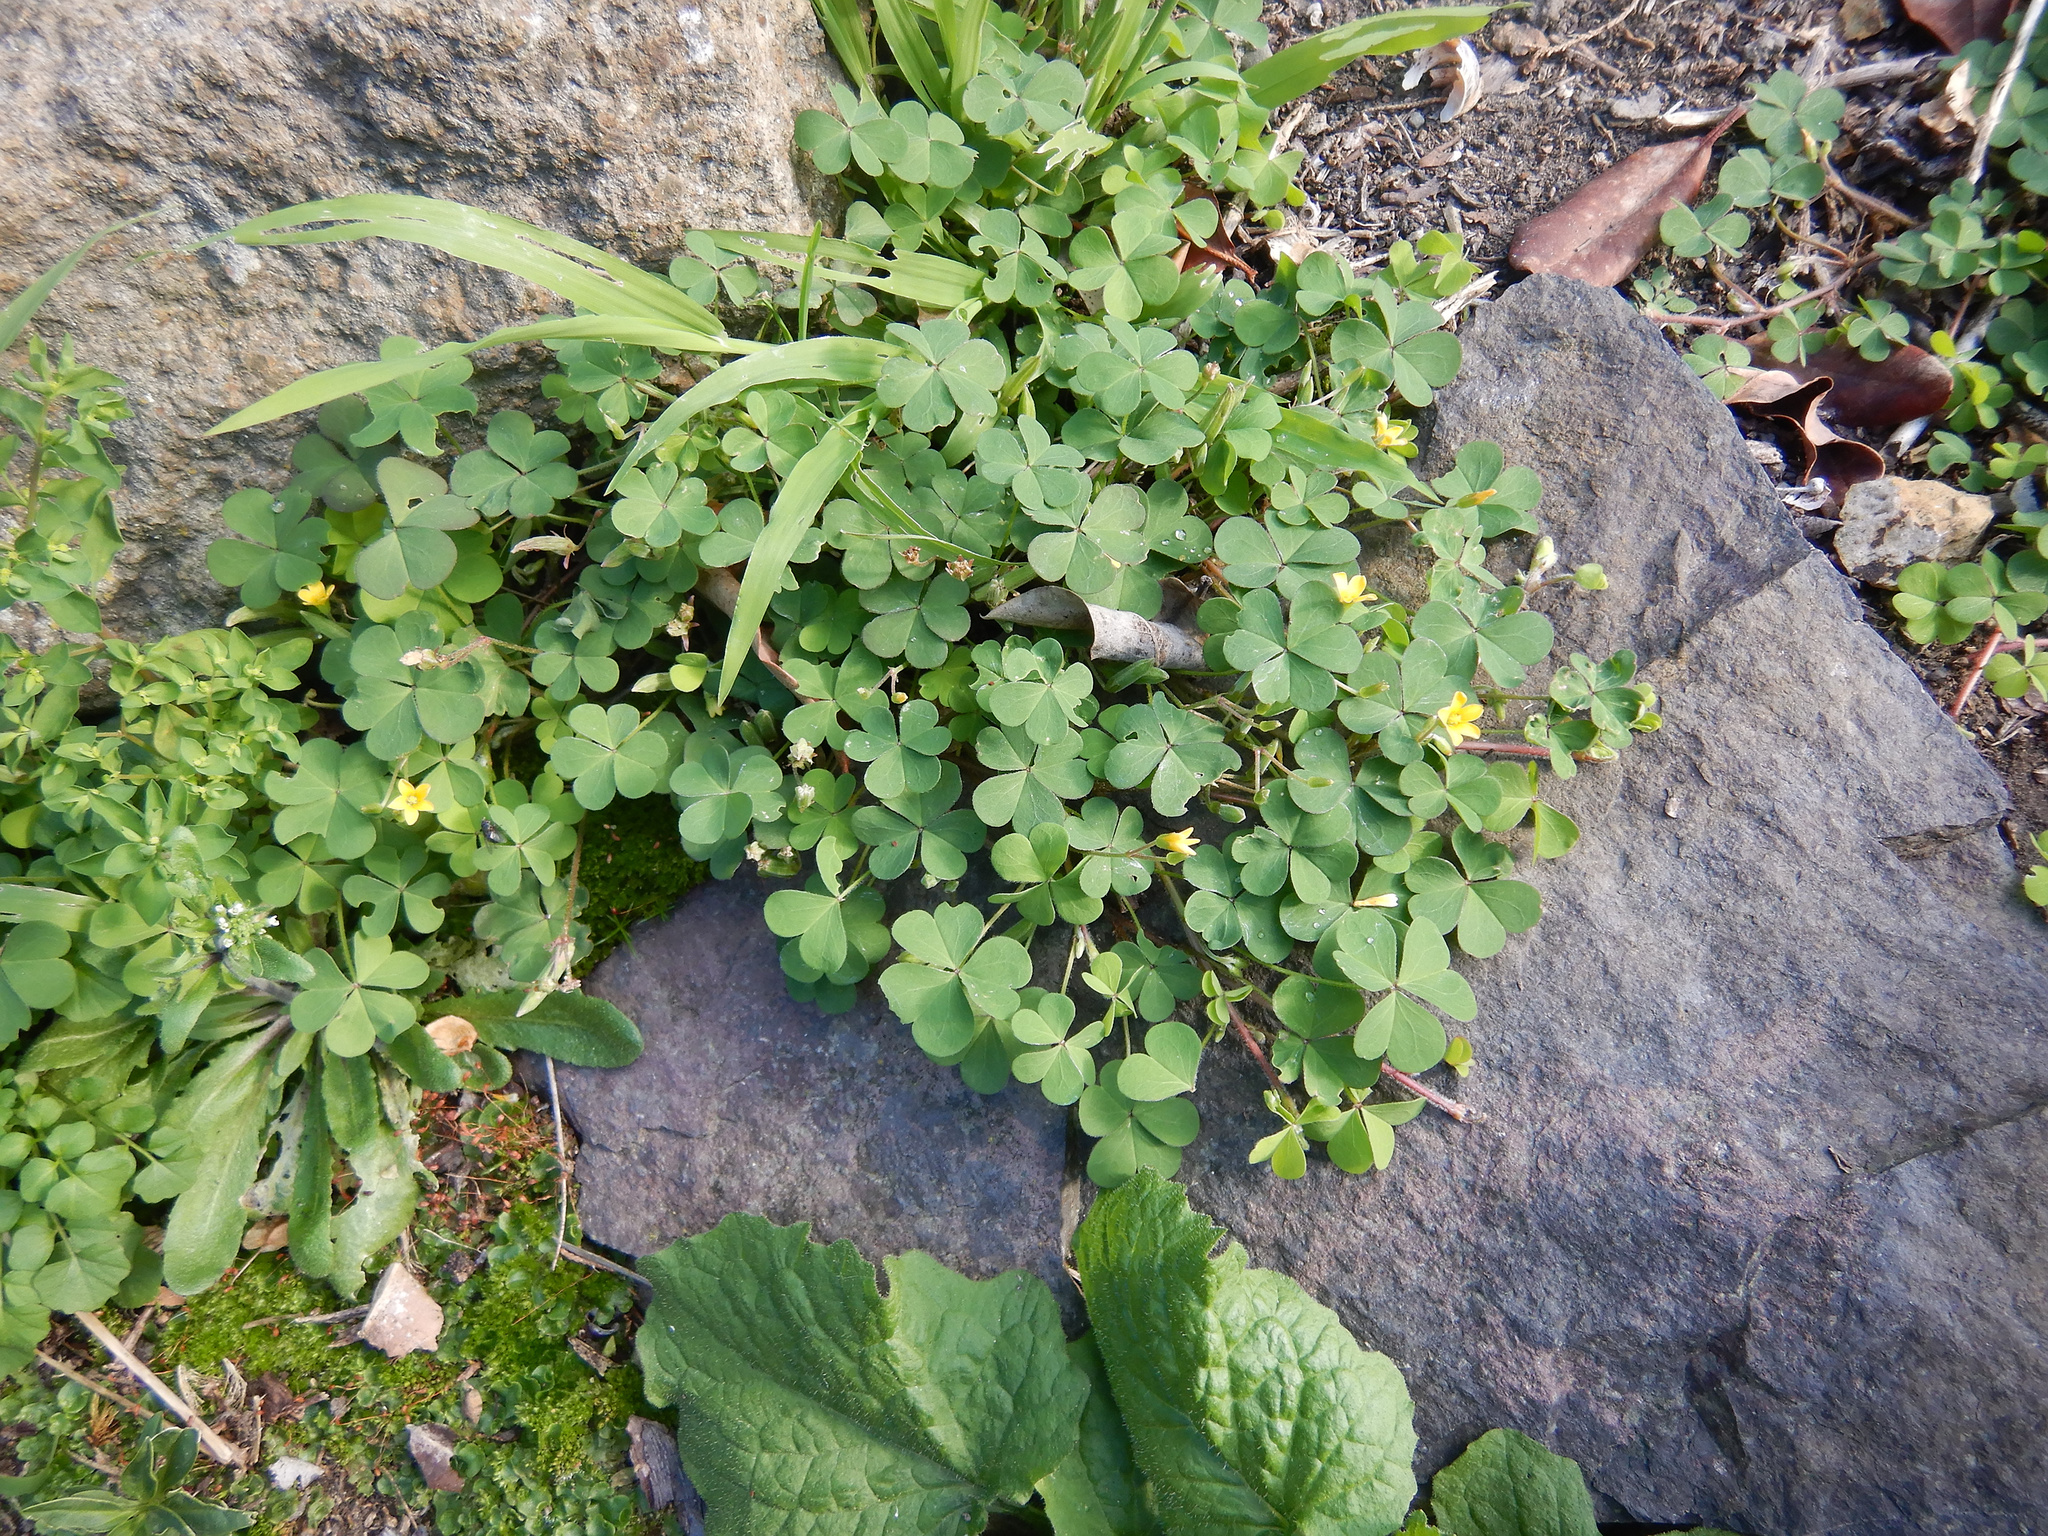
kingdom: Plantae
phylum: Tracheophyta
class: Magnoliopsida
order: Oxalidales
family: Oxalidaceae
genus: Oxalis
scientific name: Oxalis corniculata
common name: Procumbent yellow-sorrel
